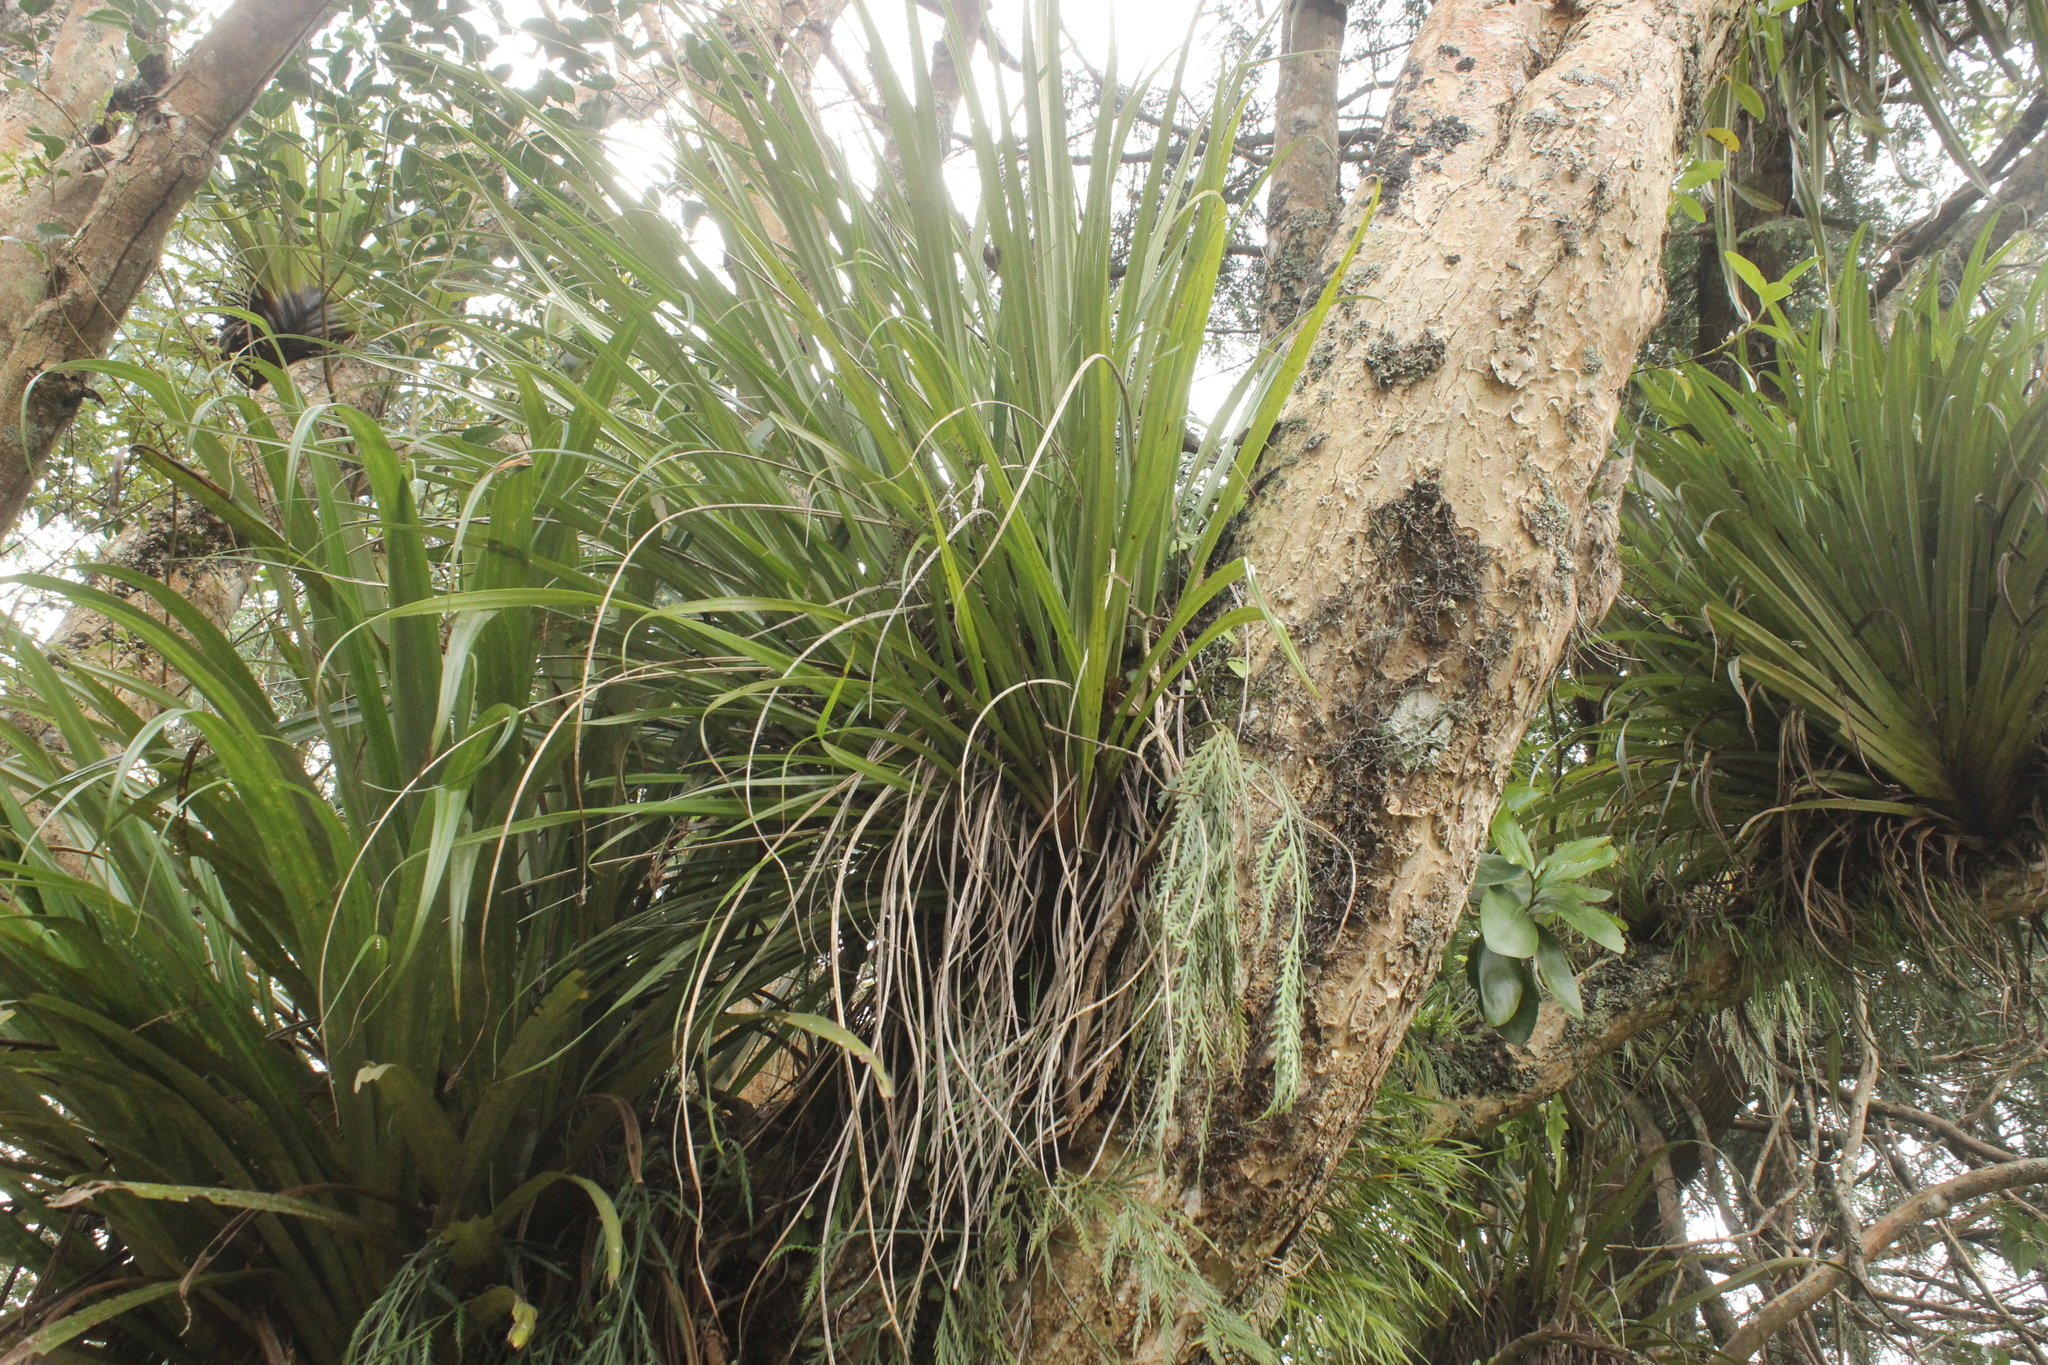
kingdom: Plantae
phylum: Tracheophyta
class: Liliopsida
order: Asparagales
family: Asteliaceae
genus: Astelia
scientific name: Astelia solandri
